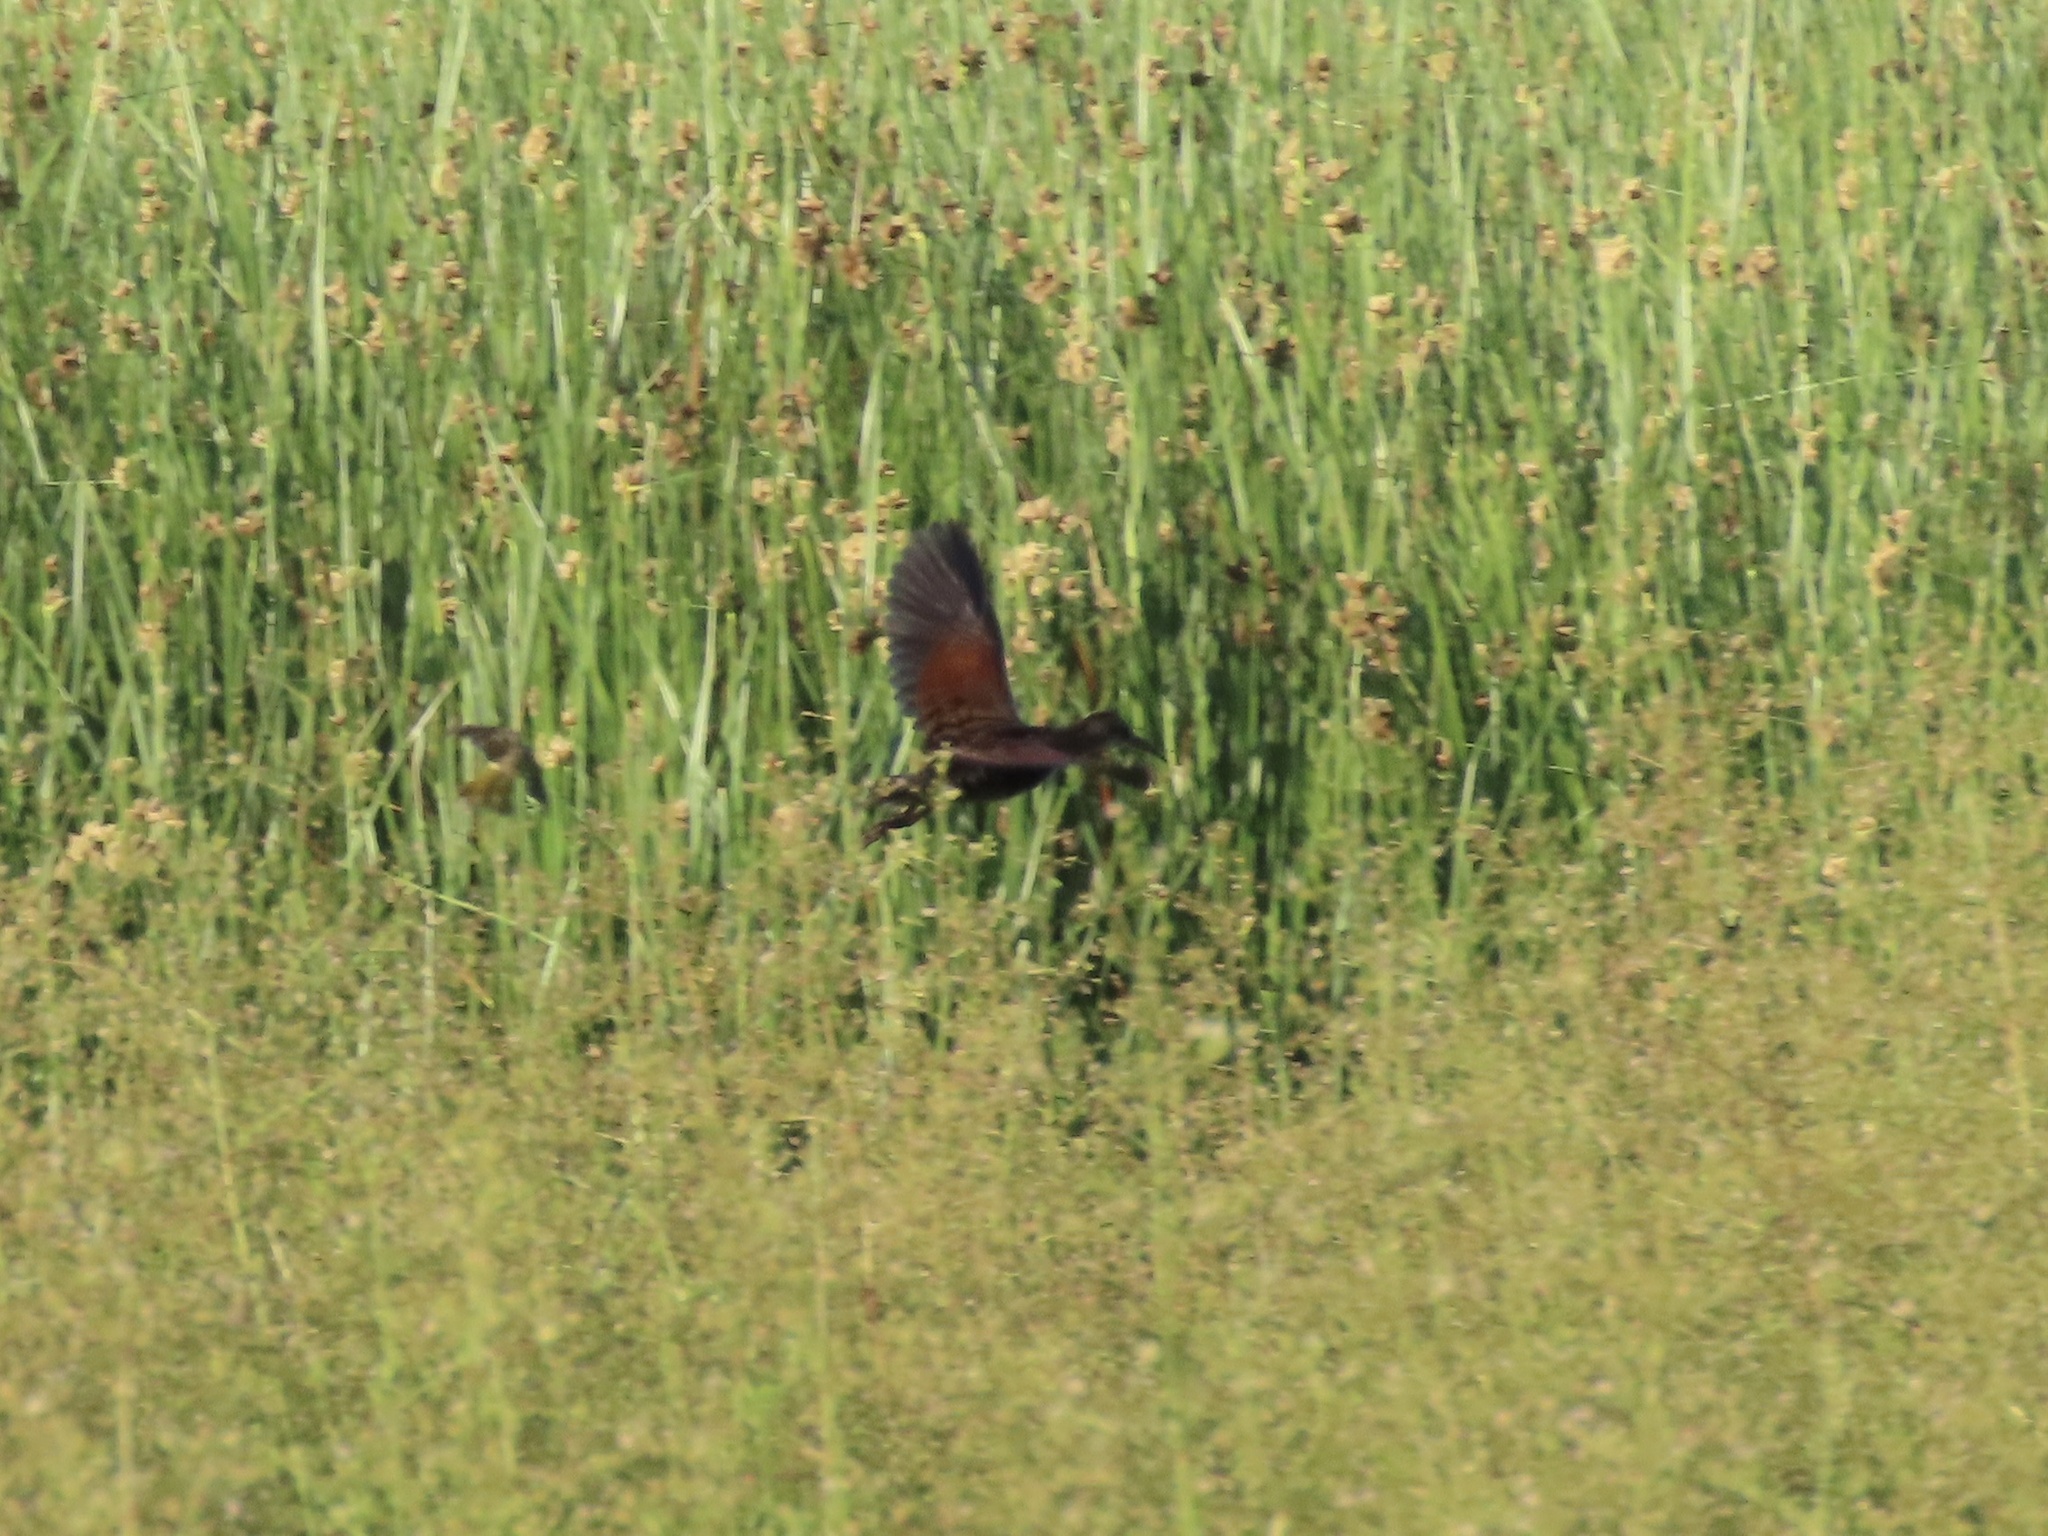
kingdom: Animalia
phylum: Chordata
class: Aves
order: Gruiformes
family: Rallidae
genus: Rallus
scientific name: Rallus limicola
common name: Virginia rail
